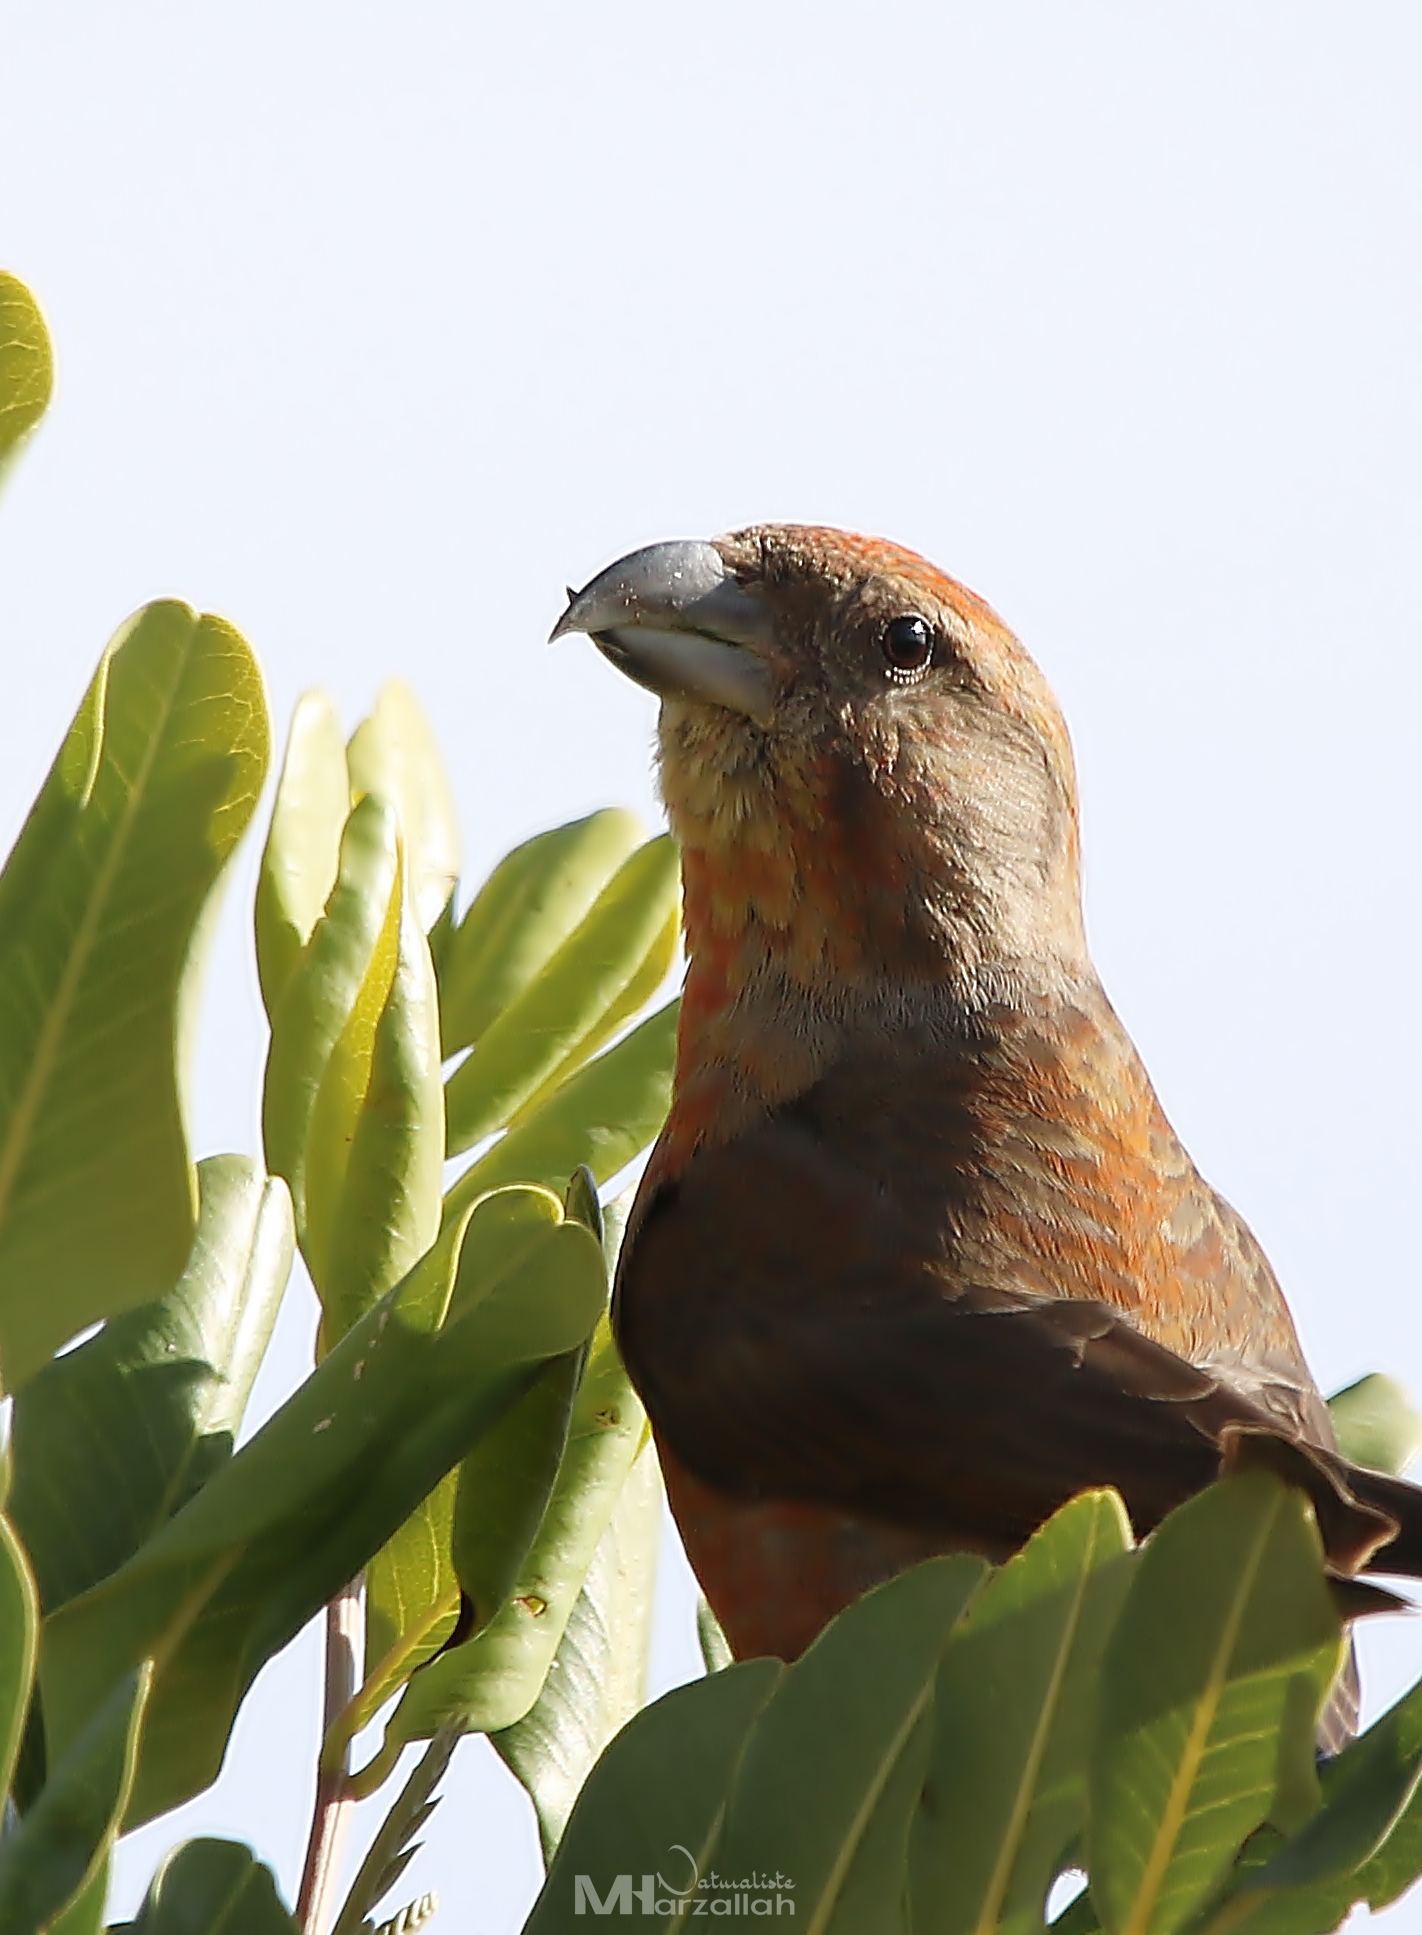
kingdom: Animalia
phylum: Chordata
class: Aves
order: Passeriformes
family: Fringillidae
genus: Loxia
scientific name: Loxia curvirostra
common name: Red crossbill
